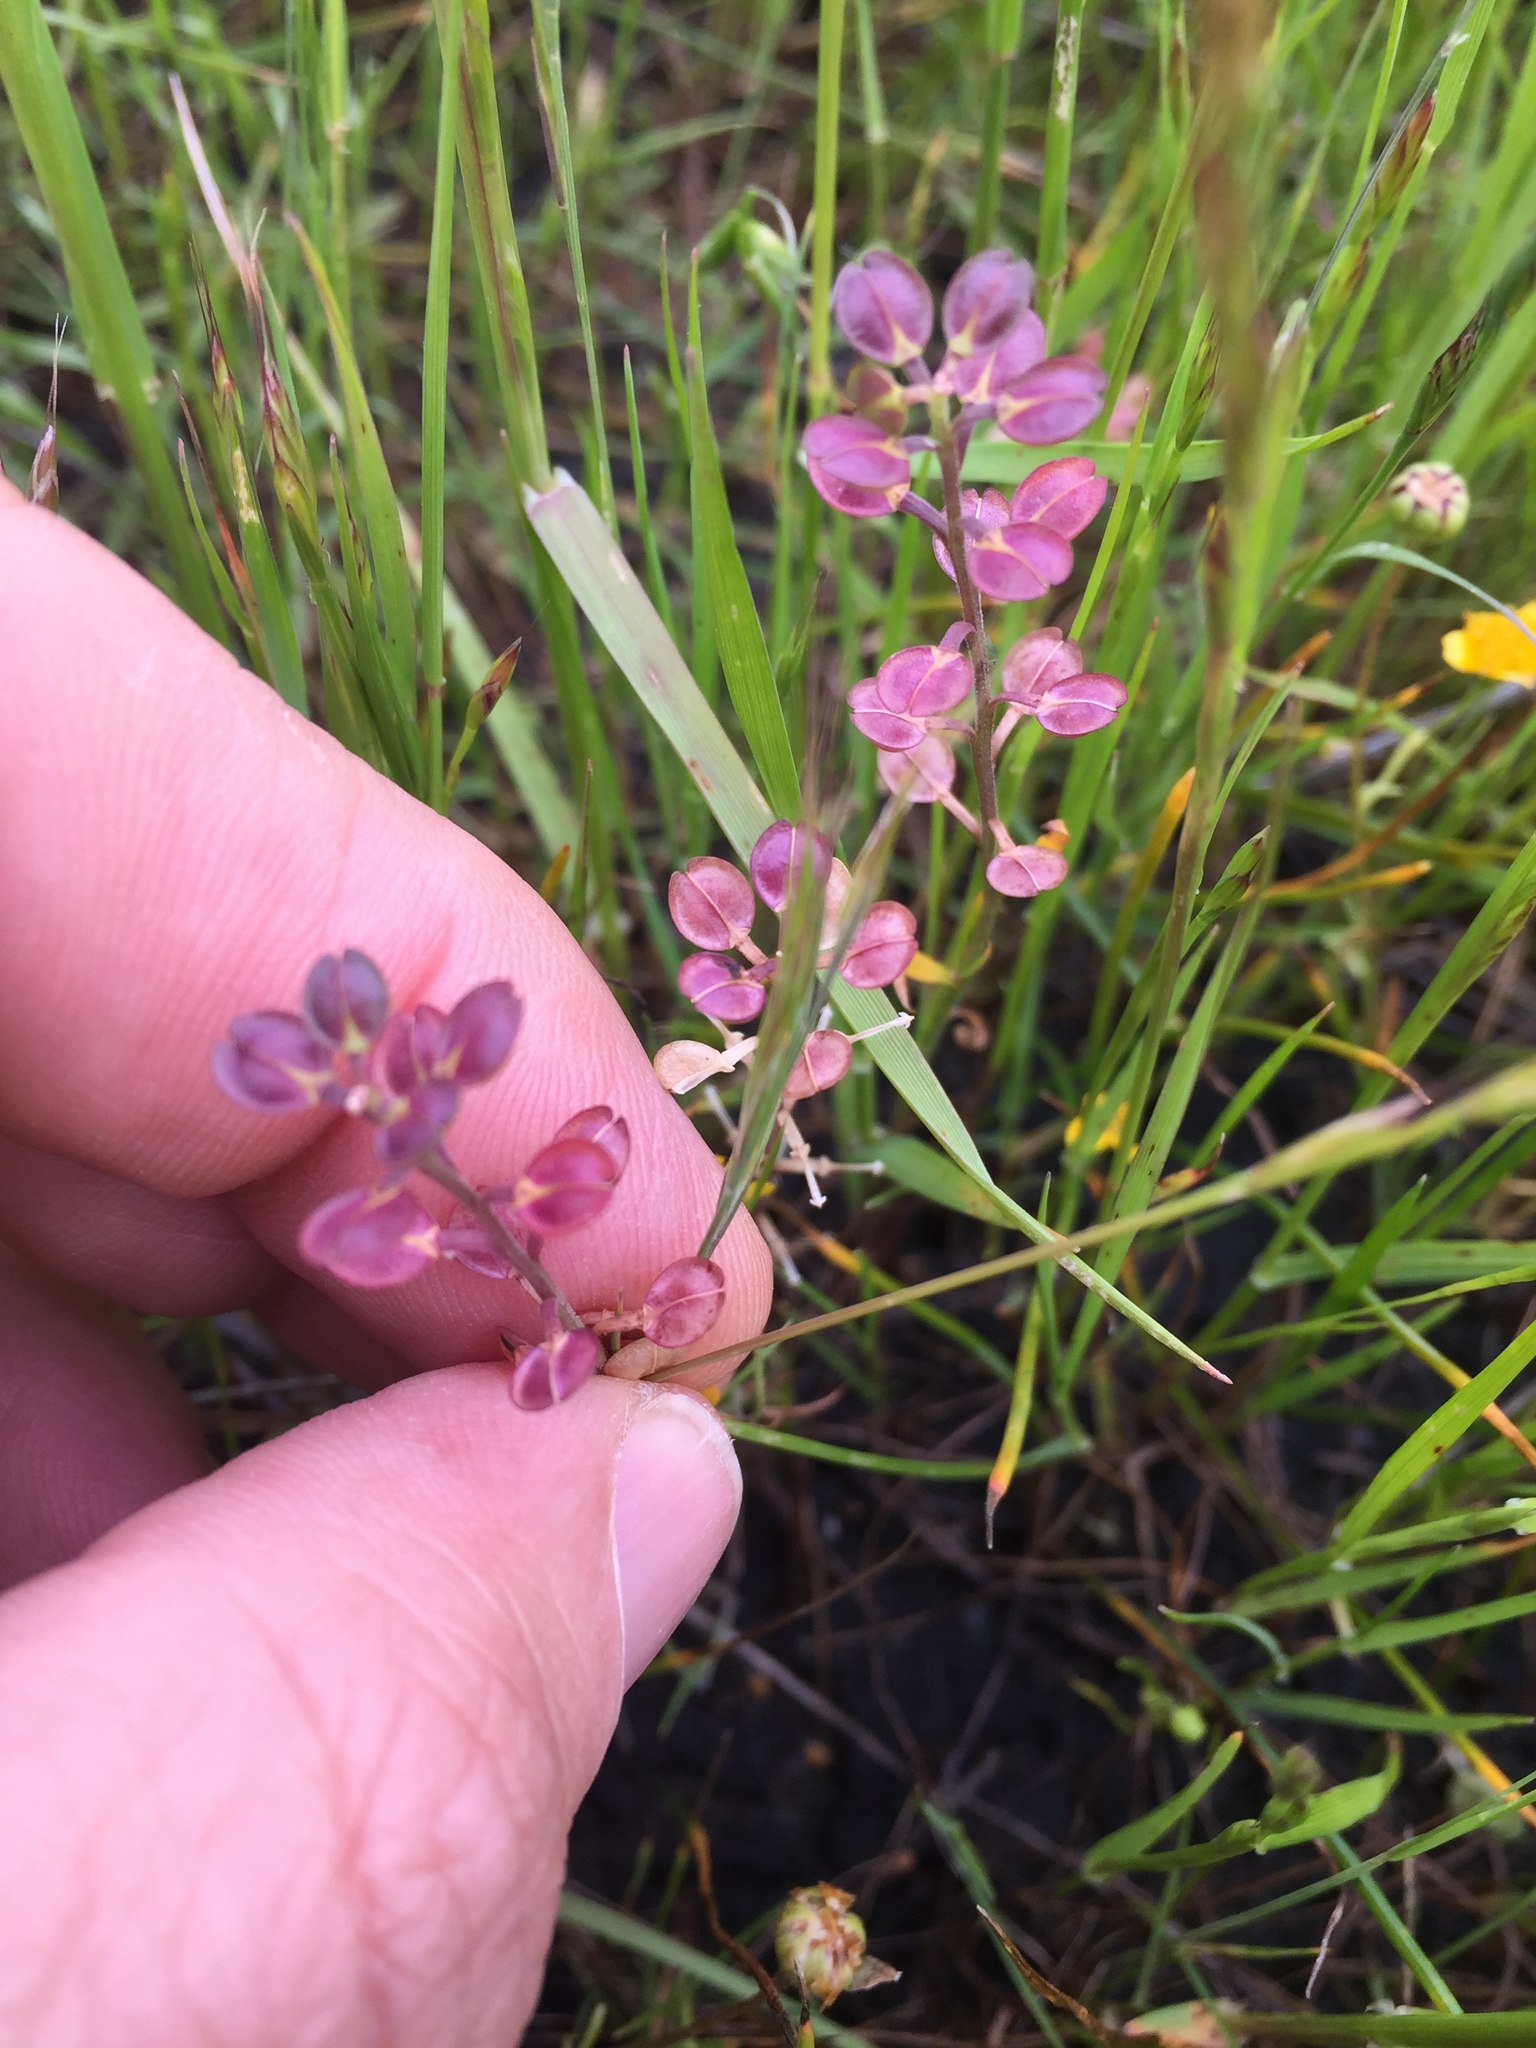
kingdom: Plantae
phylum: Tracheophyta
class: Magnoliopsida
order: Brassicales
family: Brassicaceae
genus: Lepidium
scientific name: Lepidium nitidum
